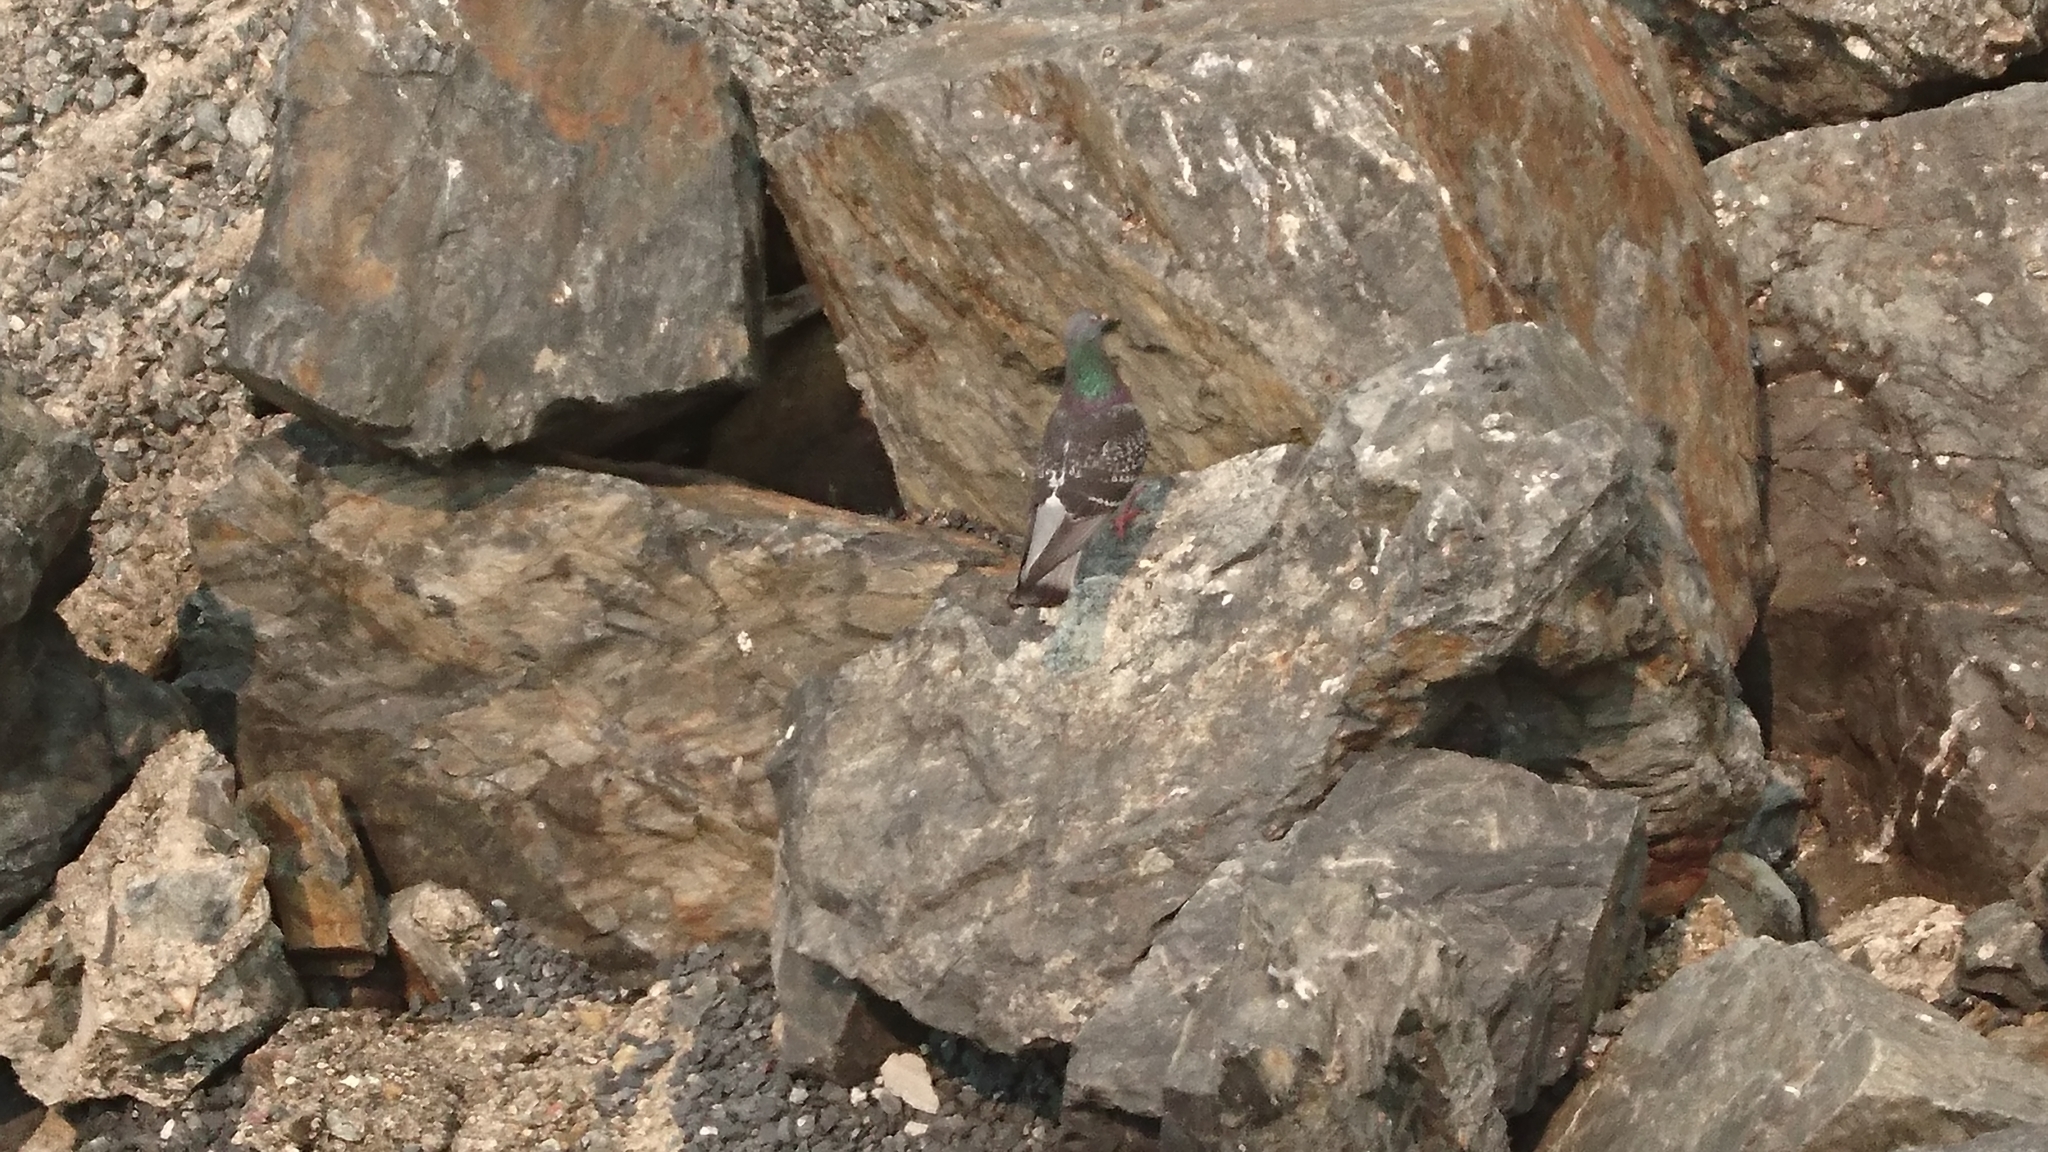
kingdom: Animalia
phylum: Chordata
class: Aves
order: Columbiformes
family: Columbidae
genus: Columba
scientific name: Columba livia
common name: Rock pigeon
